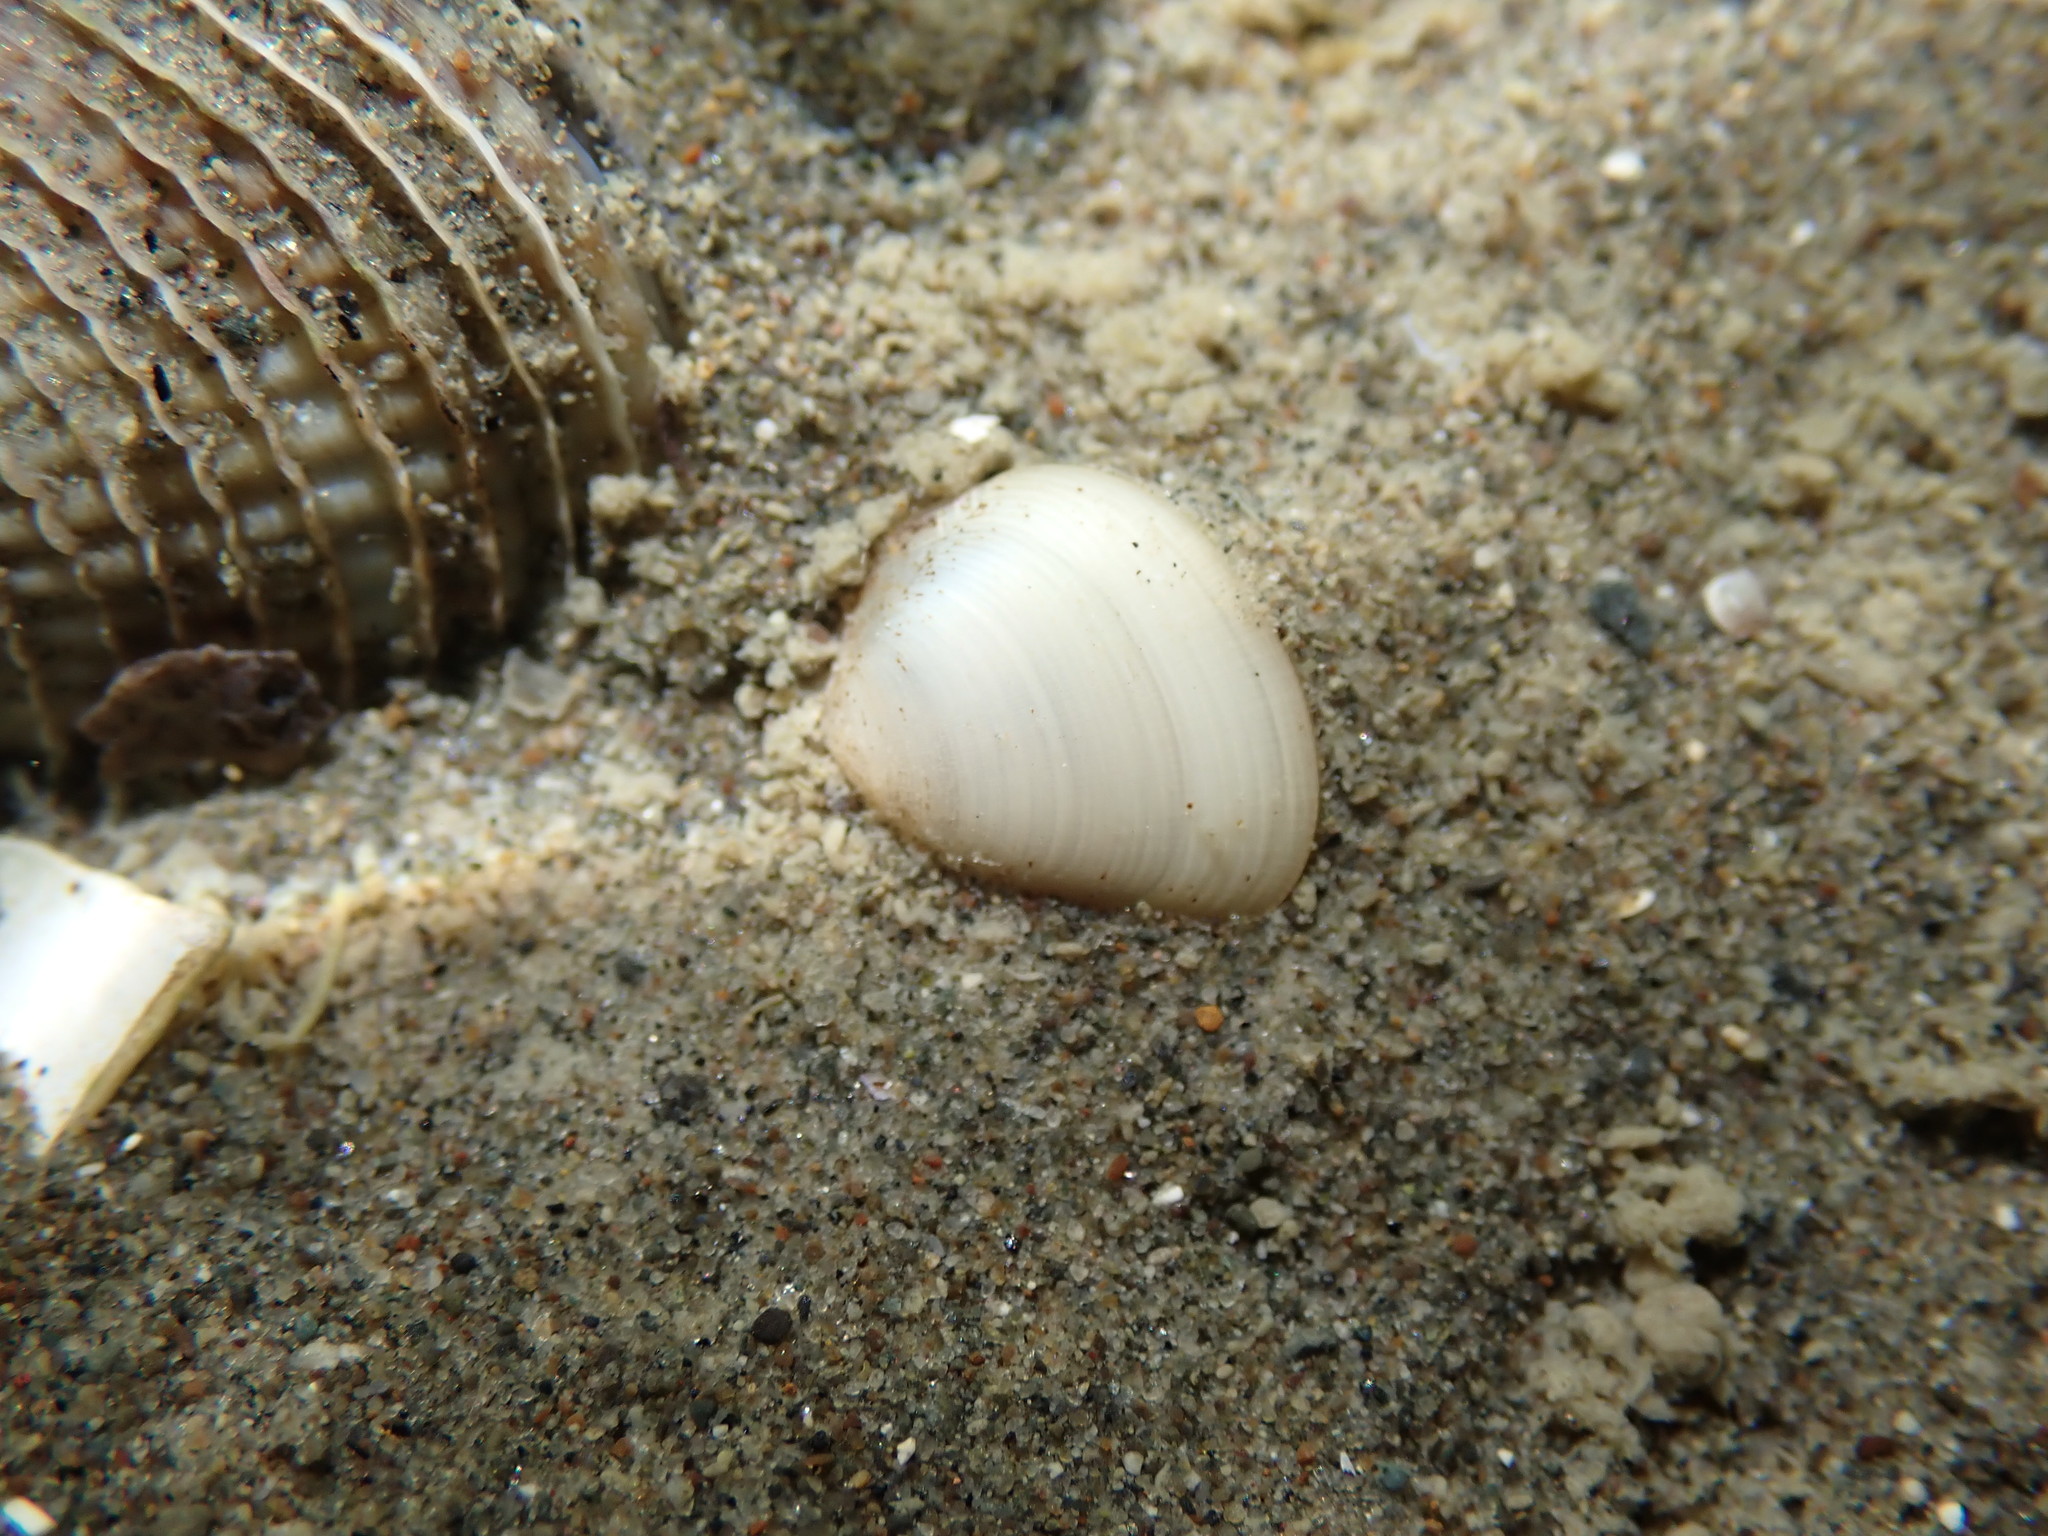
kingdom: Animalia
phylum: Mollusca
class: Bivalvia
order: Nuculida
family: Nuculidae
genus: Linucula
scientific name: Linucula hartvigiana
